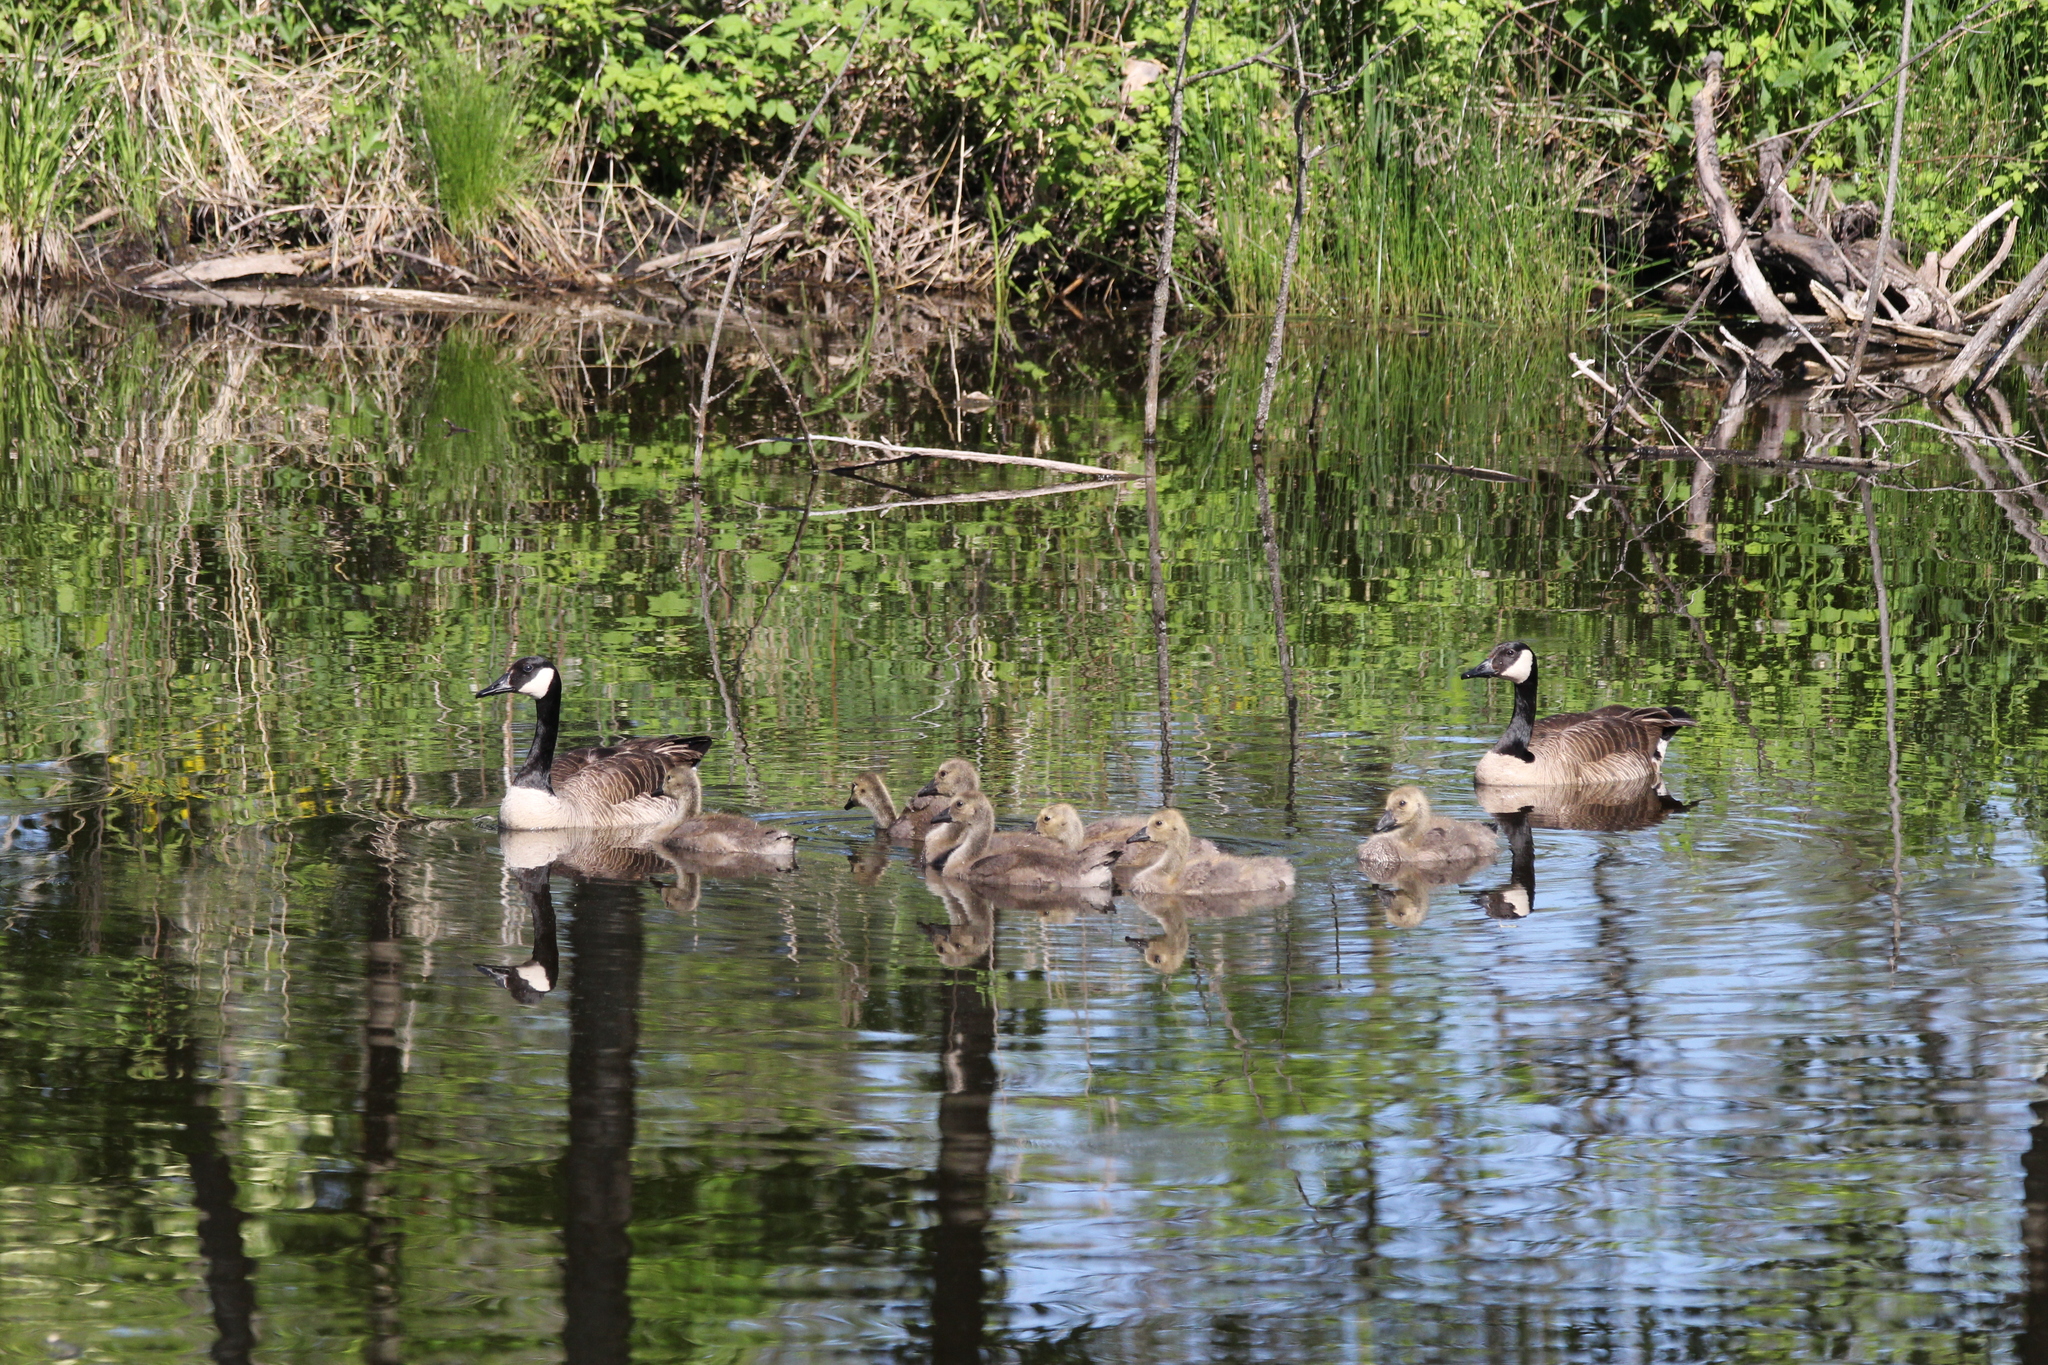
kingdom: Animalia
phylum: Chordata
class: Aves
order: Anseriformes
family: Anatidae
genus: Branta
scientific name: Branta canadensis
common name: Canada goose
